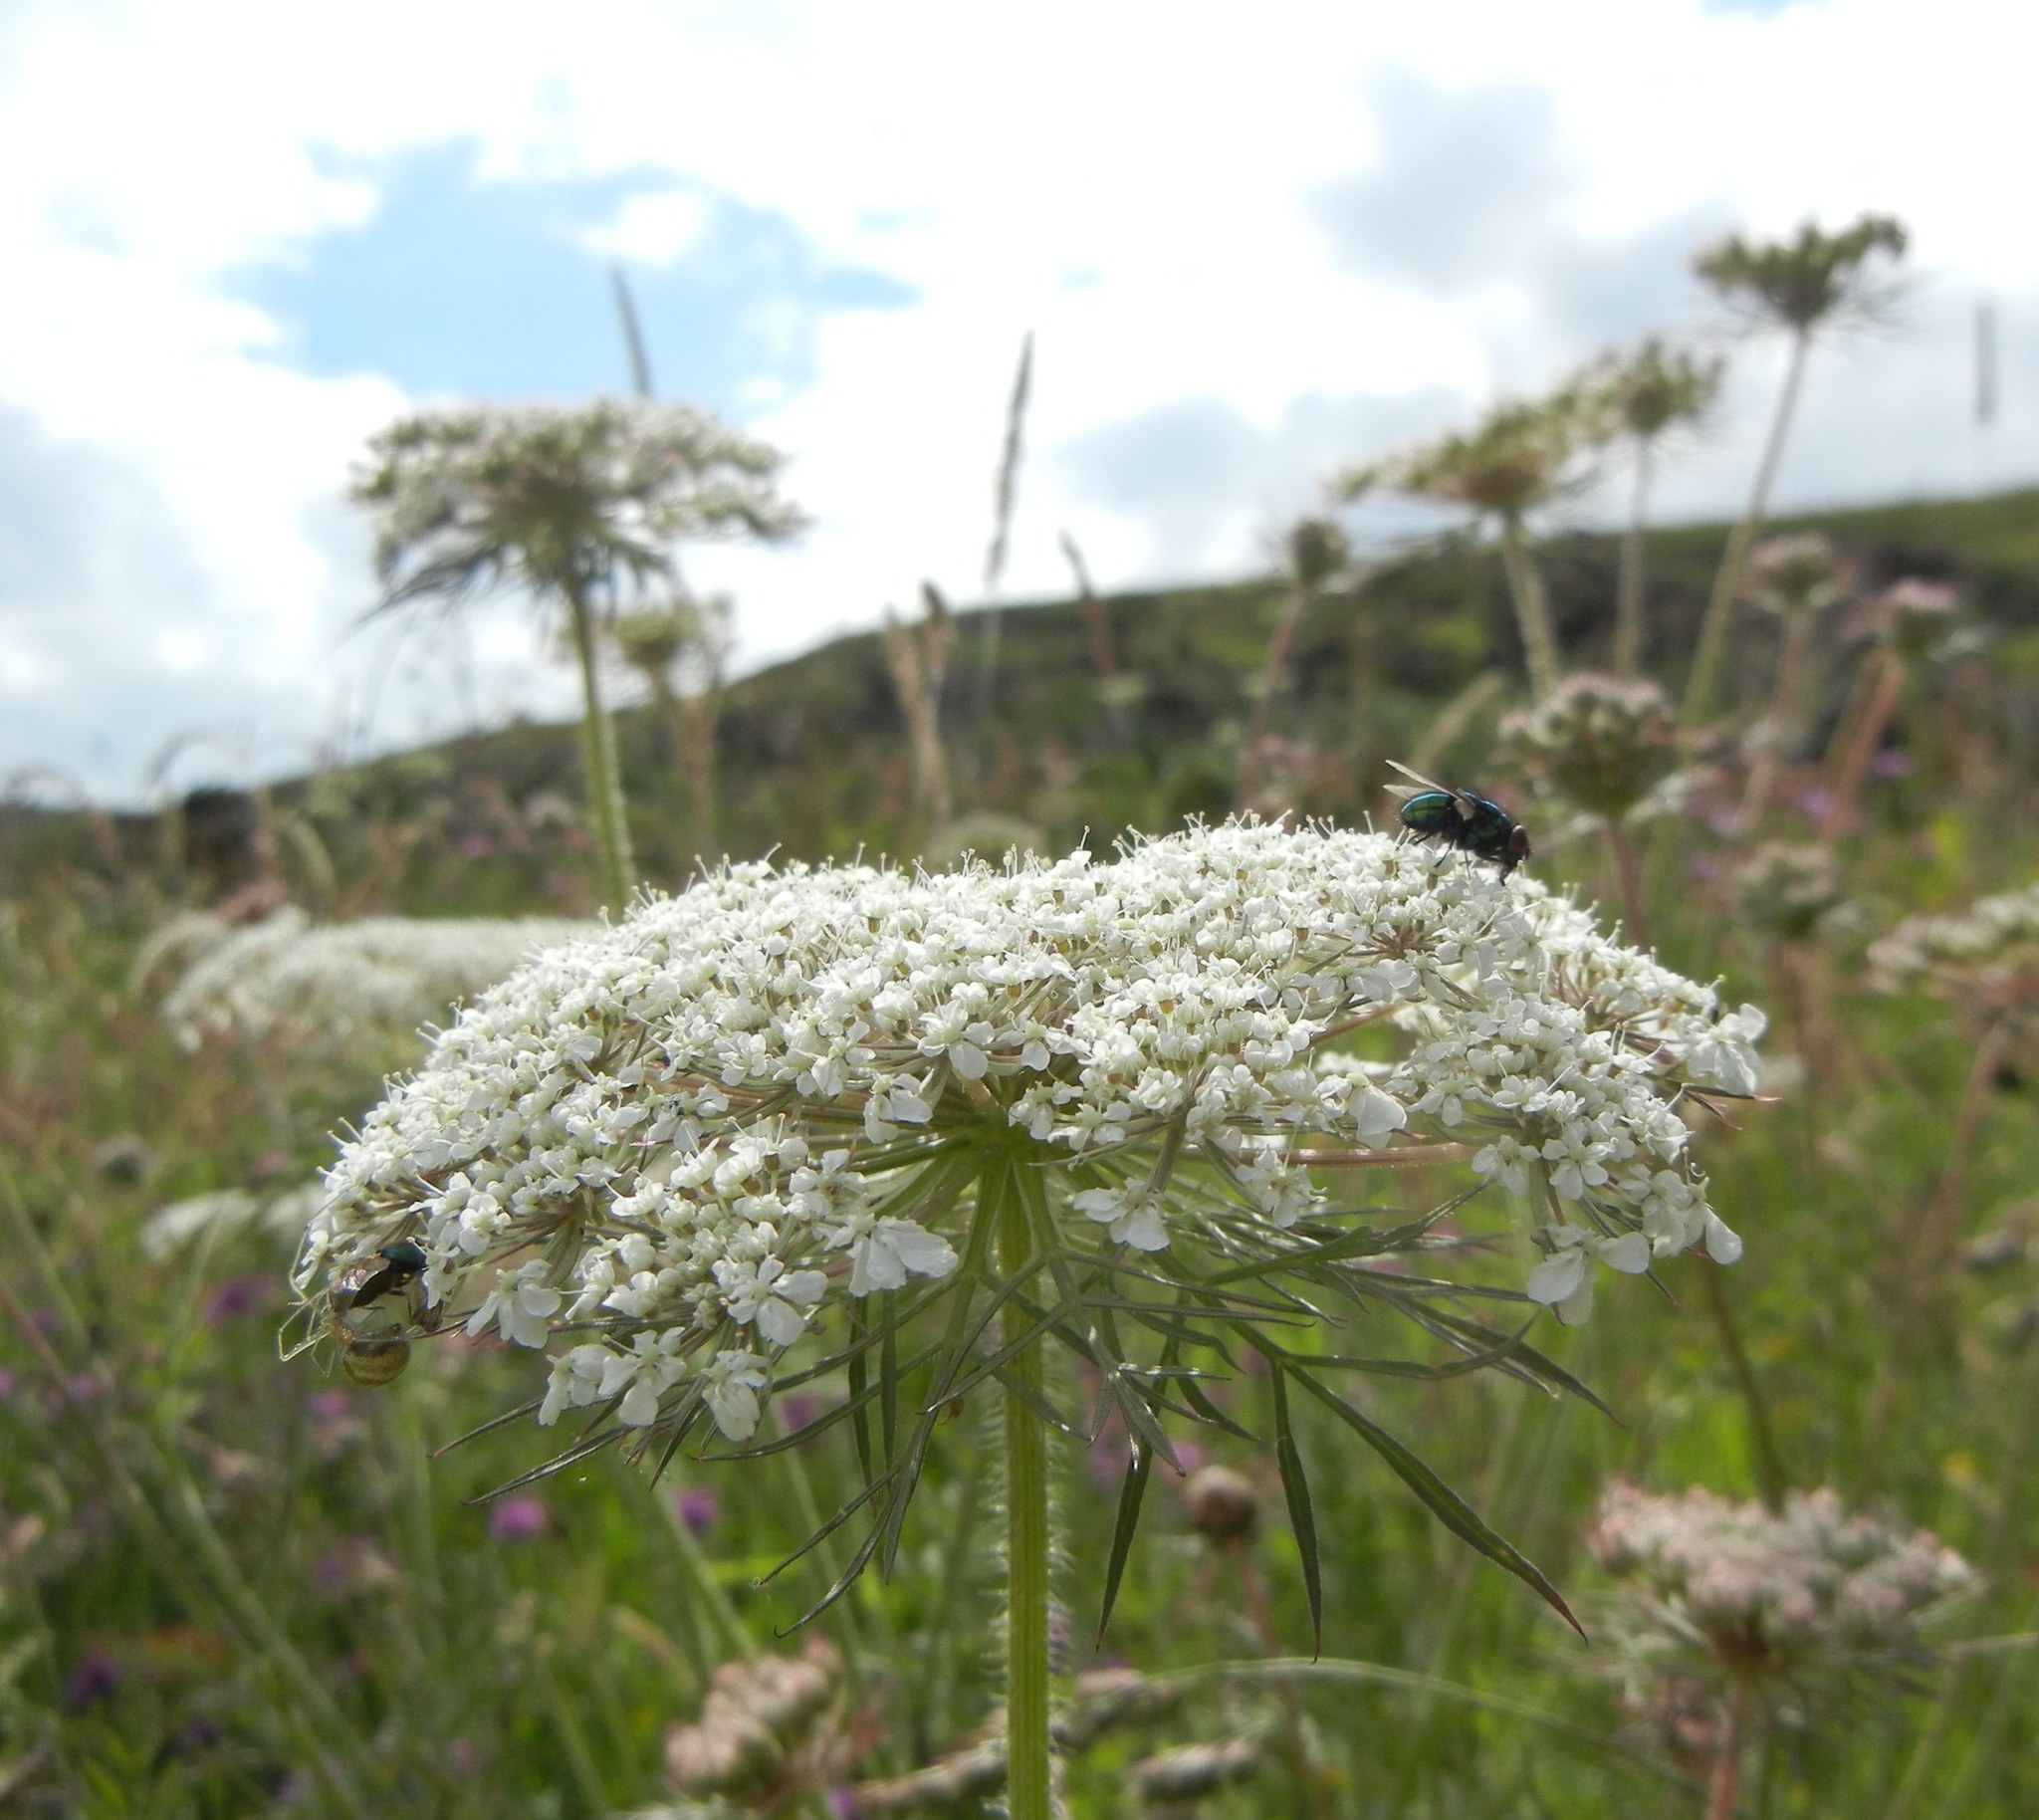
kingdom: Plantae
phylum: Tracheophyta
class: Magnoliopsida
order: Apiales
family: Apiaceae
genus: Daucus
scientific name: Daucus carota
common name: Wild carrot
